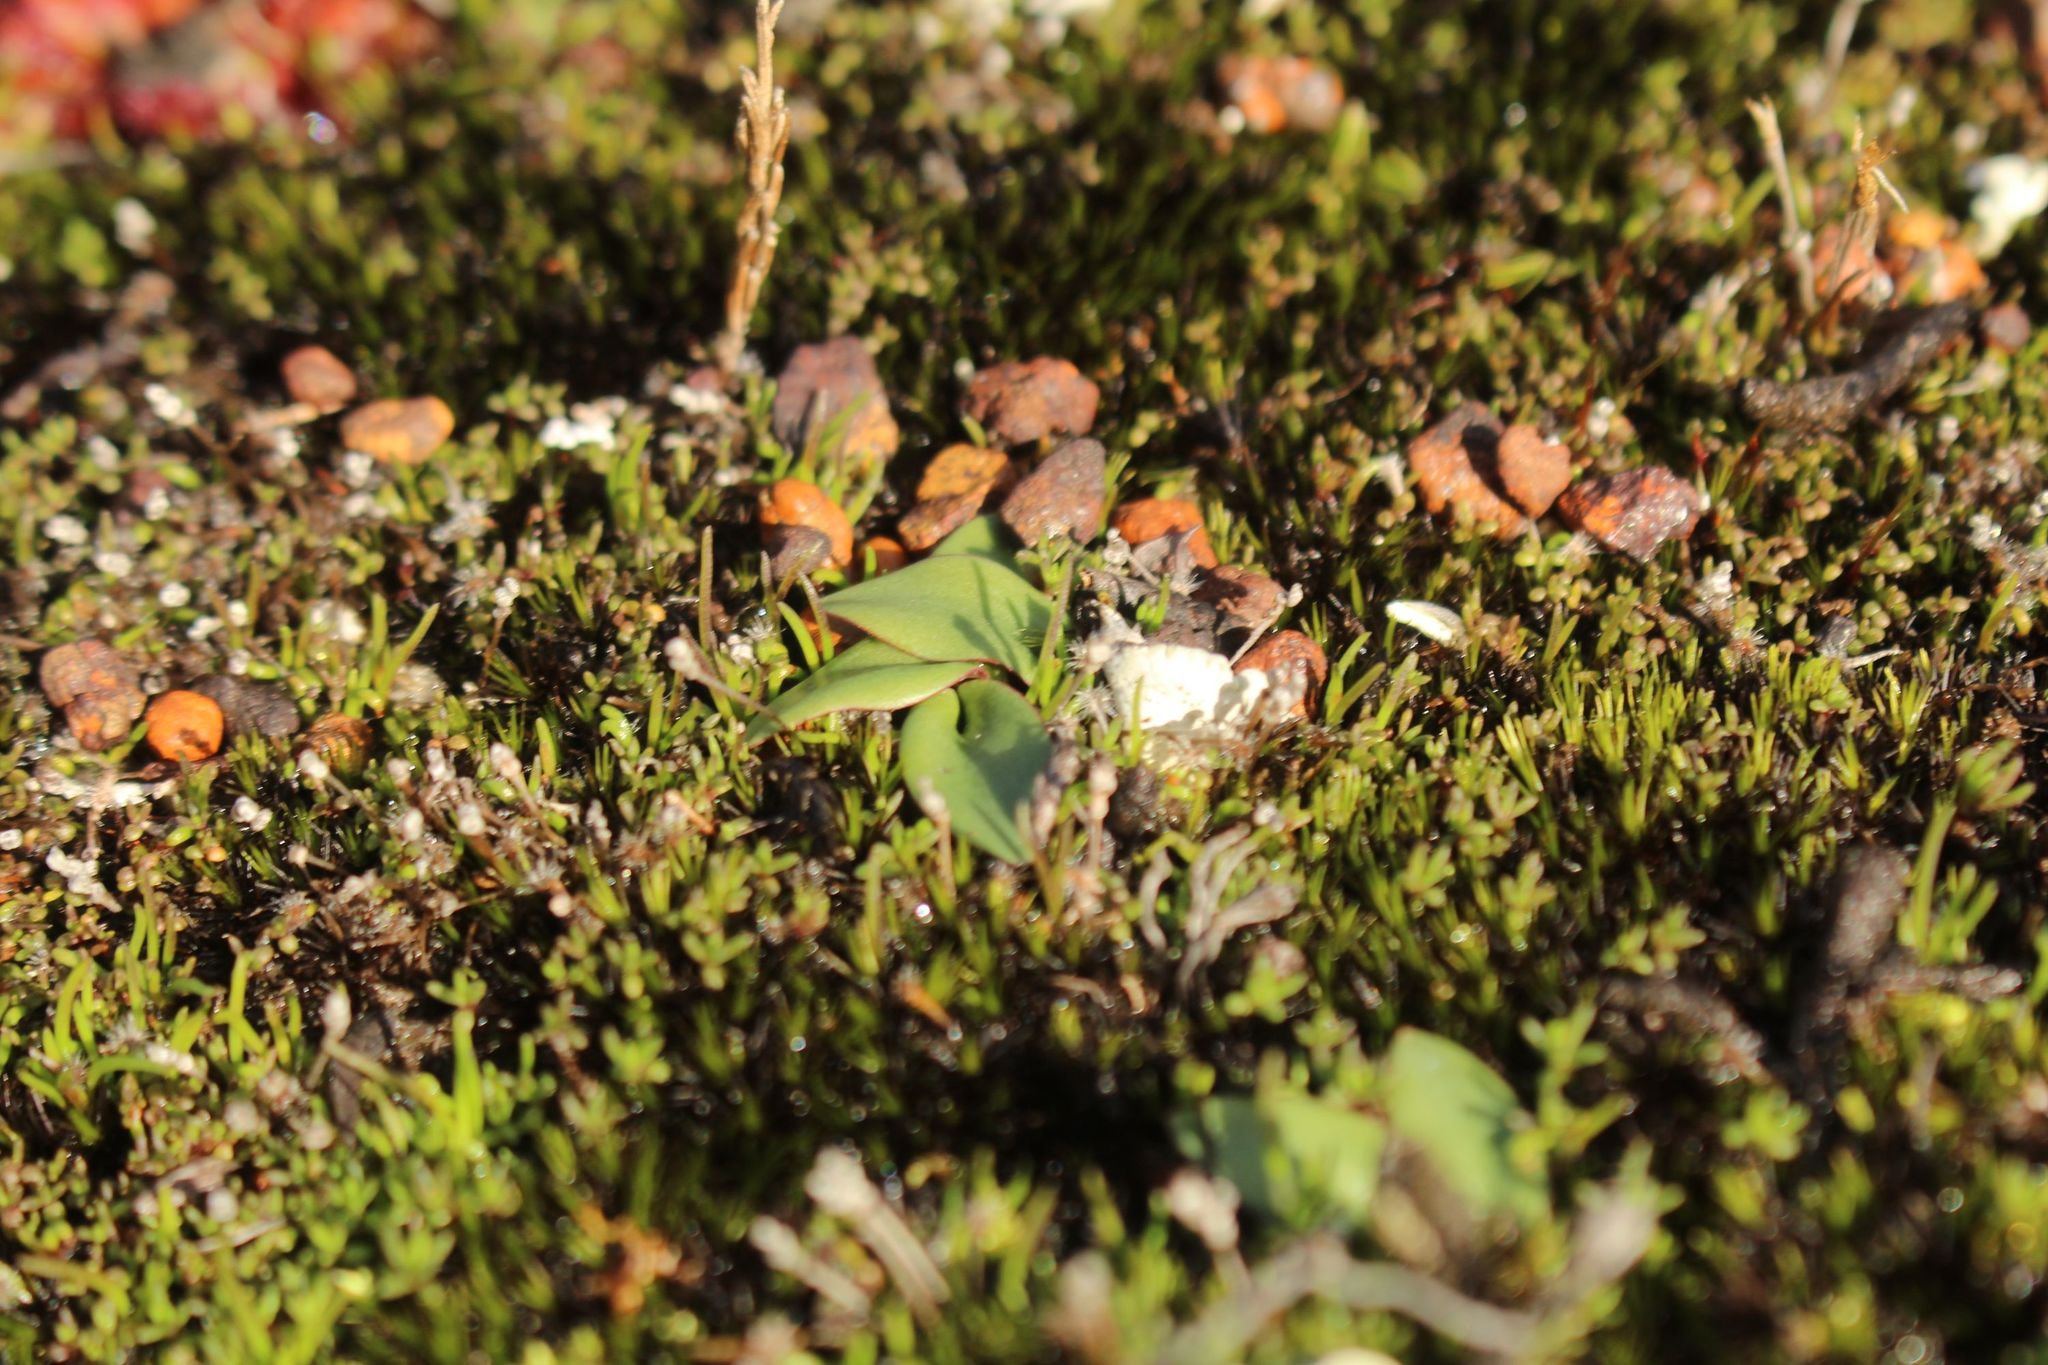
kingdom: Plantae
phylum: Tracheophyta
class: Liliopsida
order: Asparagales
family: Orchidaceae
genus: Spiculaea
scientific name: Spiculaea ciliata
